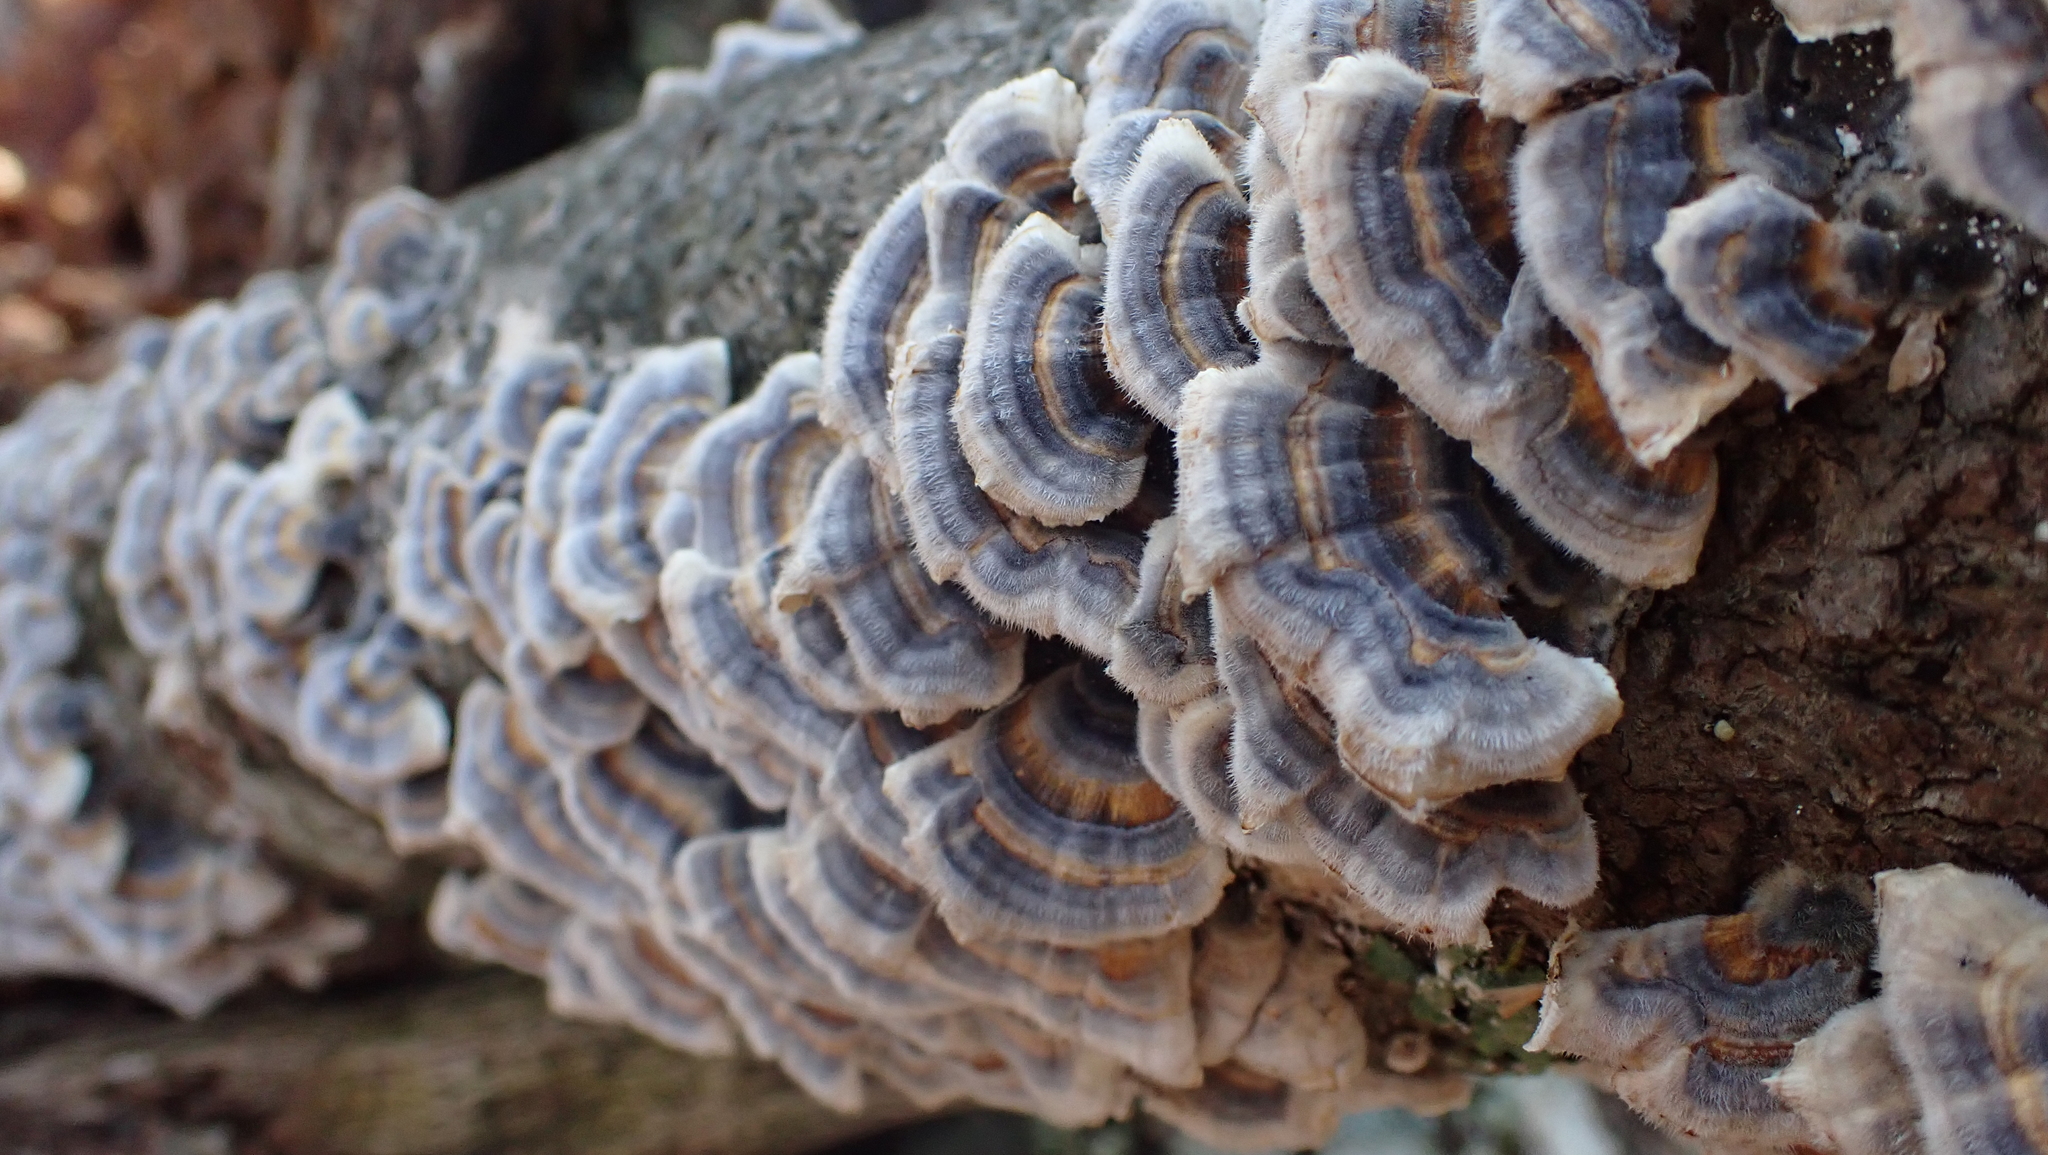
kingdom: Fungi
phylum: Basidiomycota
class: Agaricomycetes
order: Polyporales
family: Polyporaceae
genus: Trametes
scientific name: Trametes versicolor
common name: Turkeytail
